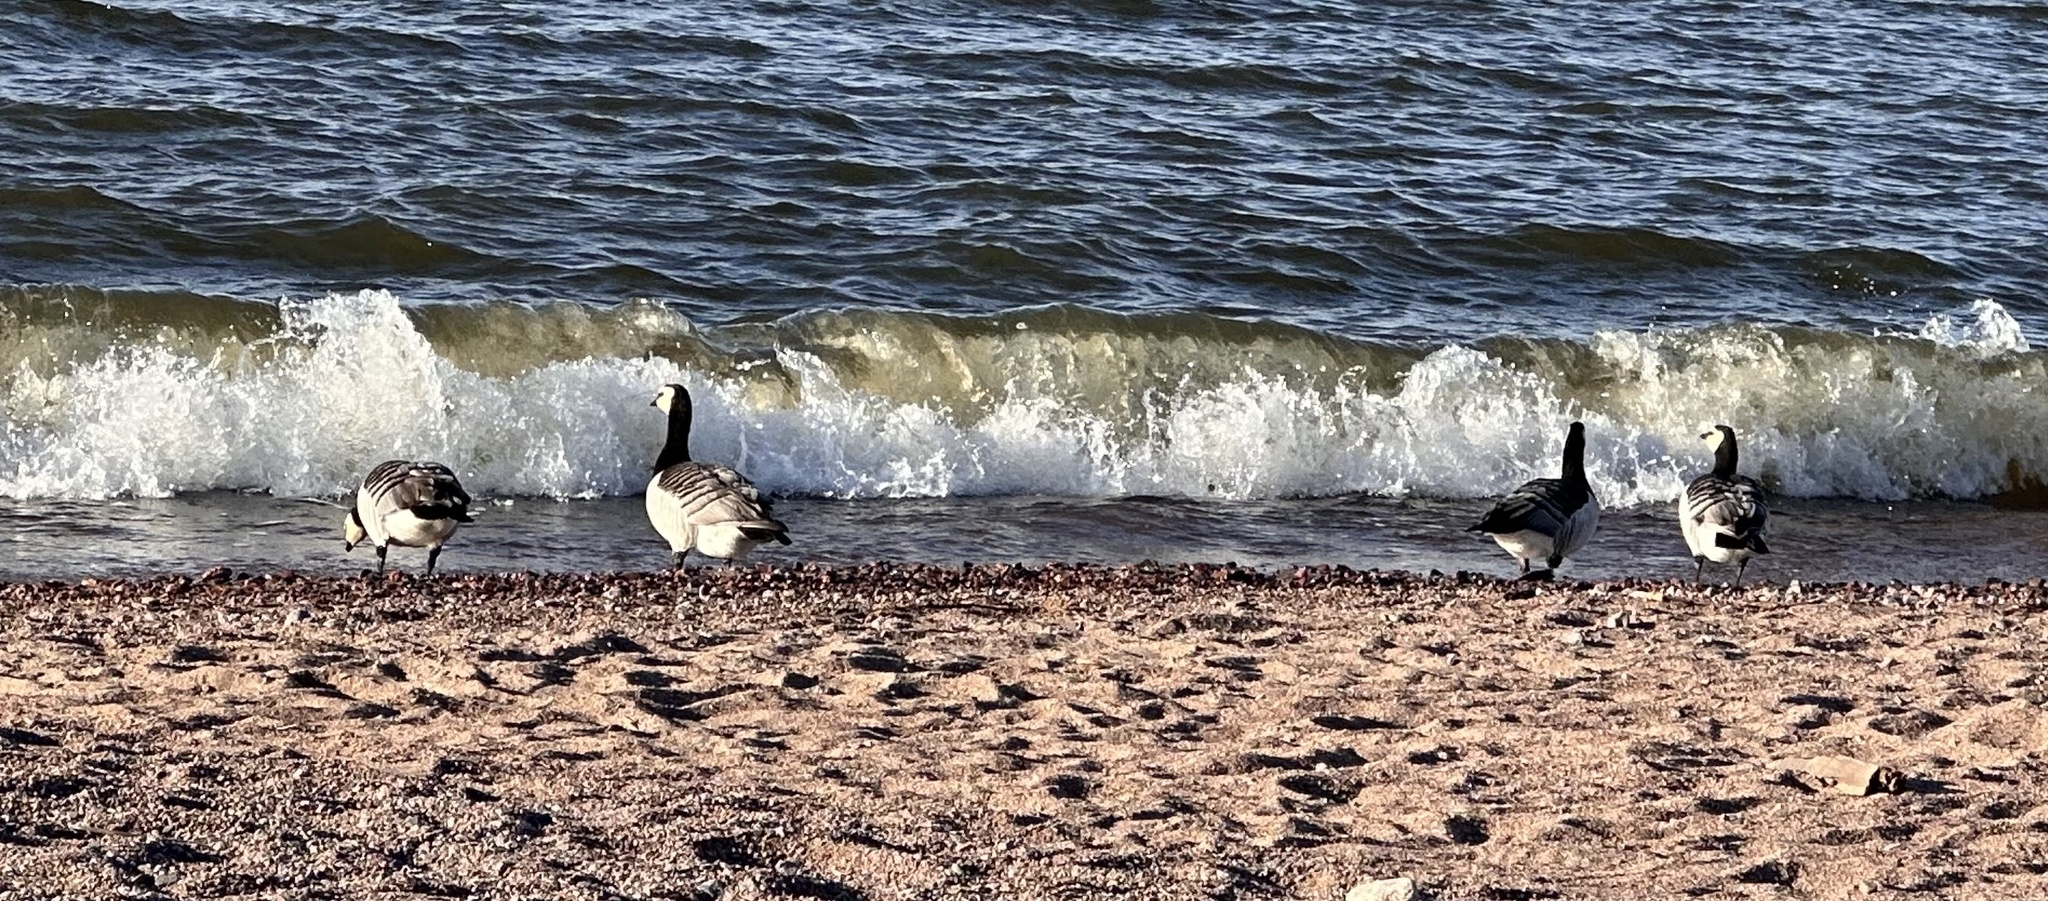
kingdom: Animalia
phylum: Chordata
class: Aves
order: Anseriformes
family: Anatidae
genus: Branta
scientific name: Branta leucopsis
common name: Barnacle goose
